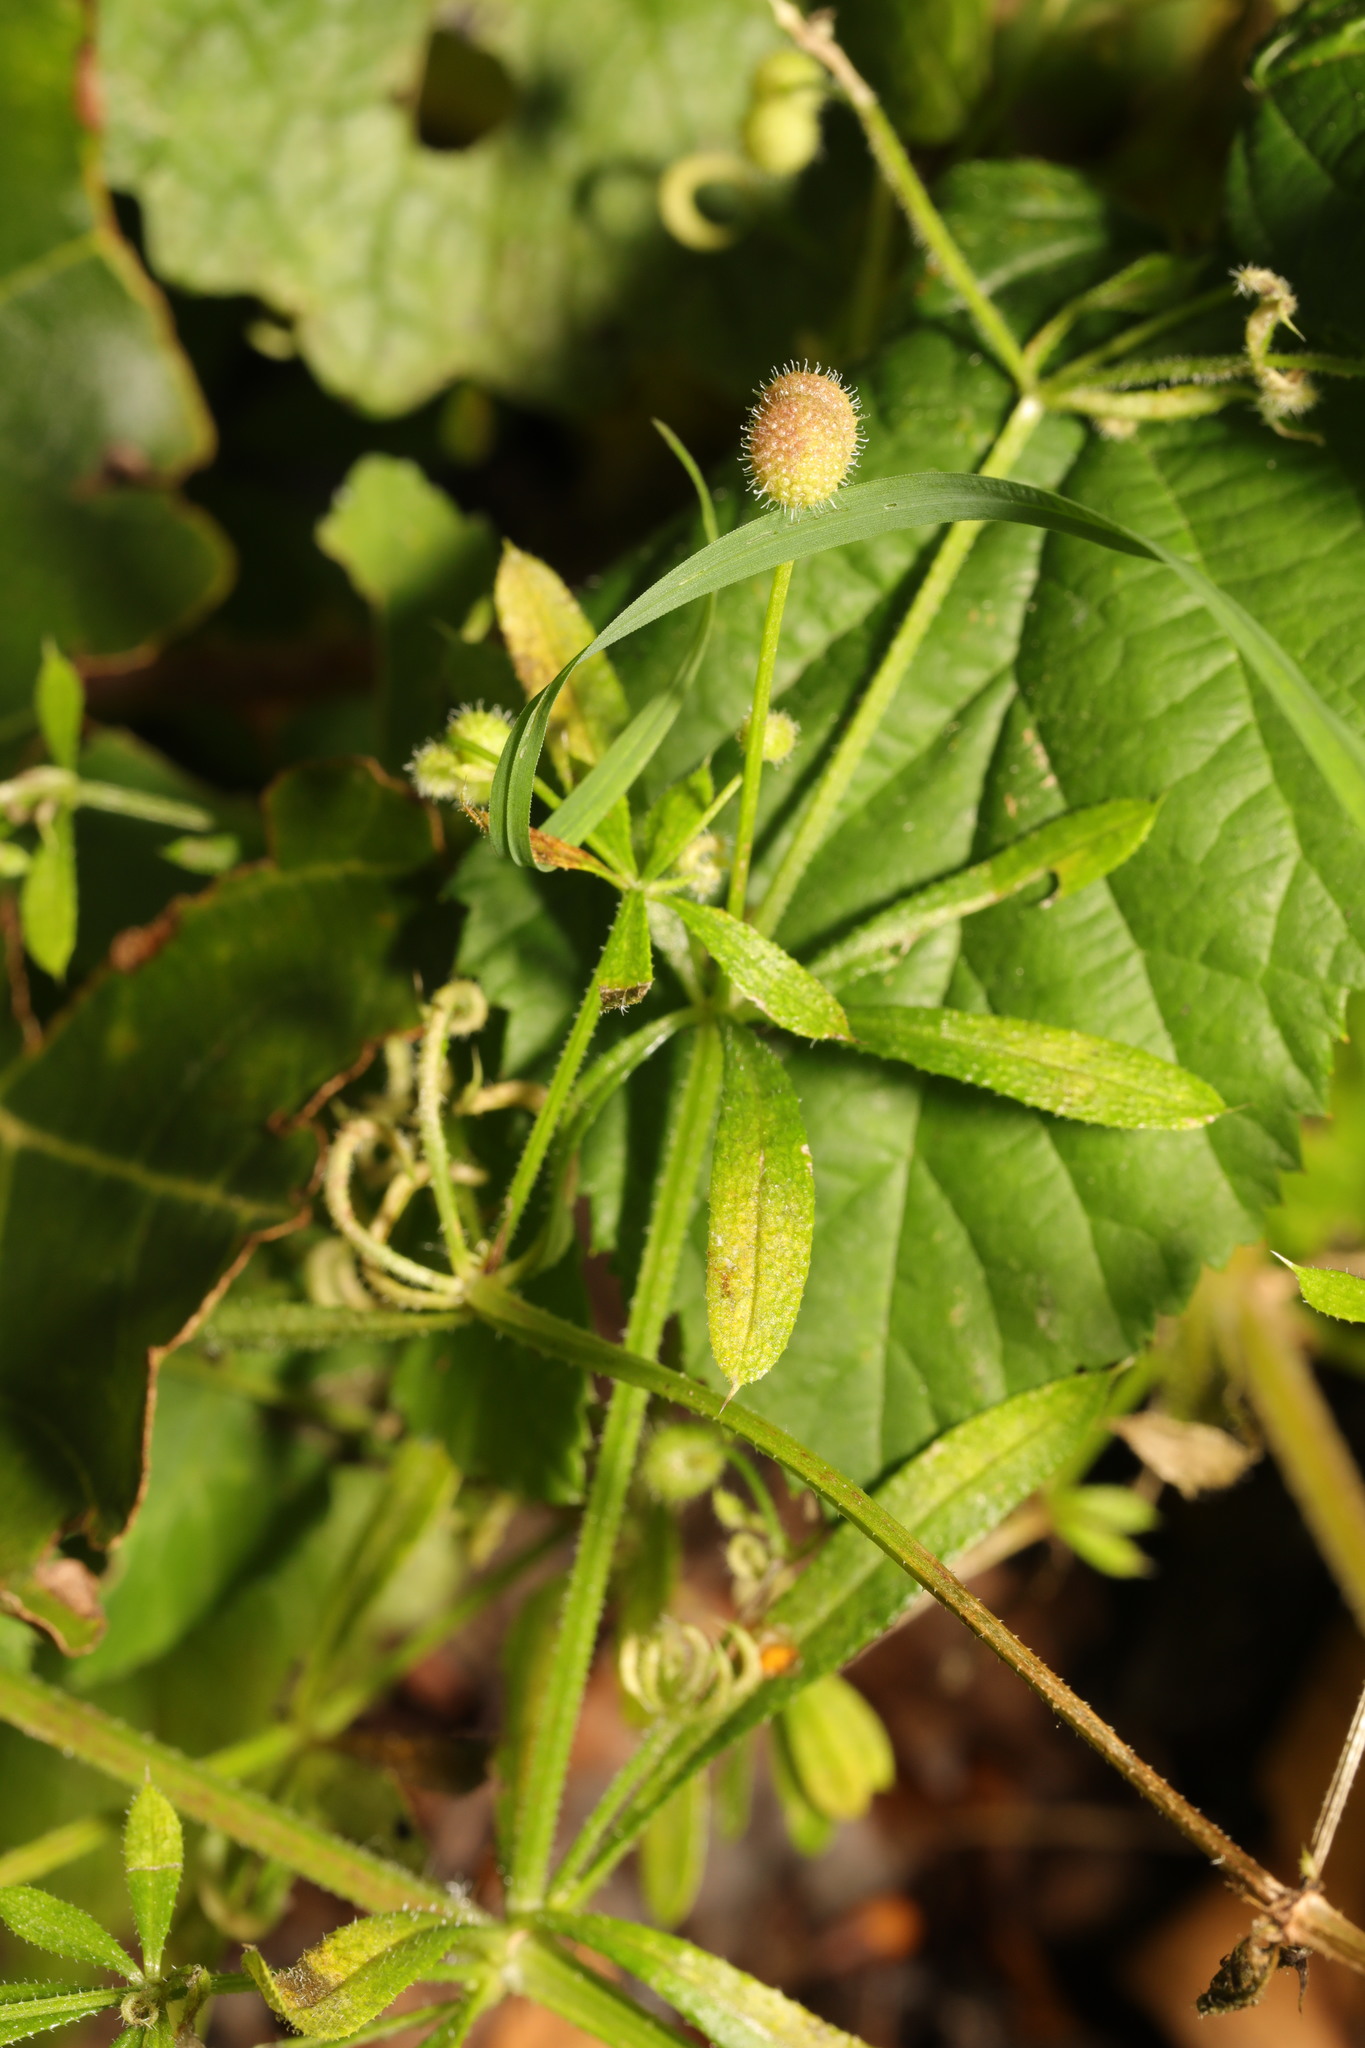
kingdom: Plantae
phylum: Tracheophyta
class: Magnoliopsida
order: Gentianales
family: Rubiaceae
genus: Galium
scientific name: Galium aparine
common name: Cleavers
